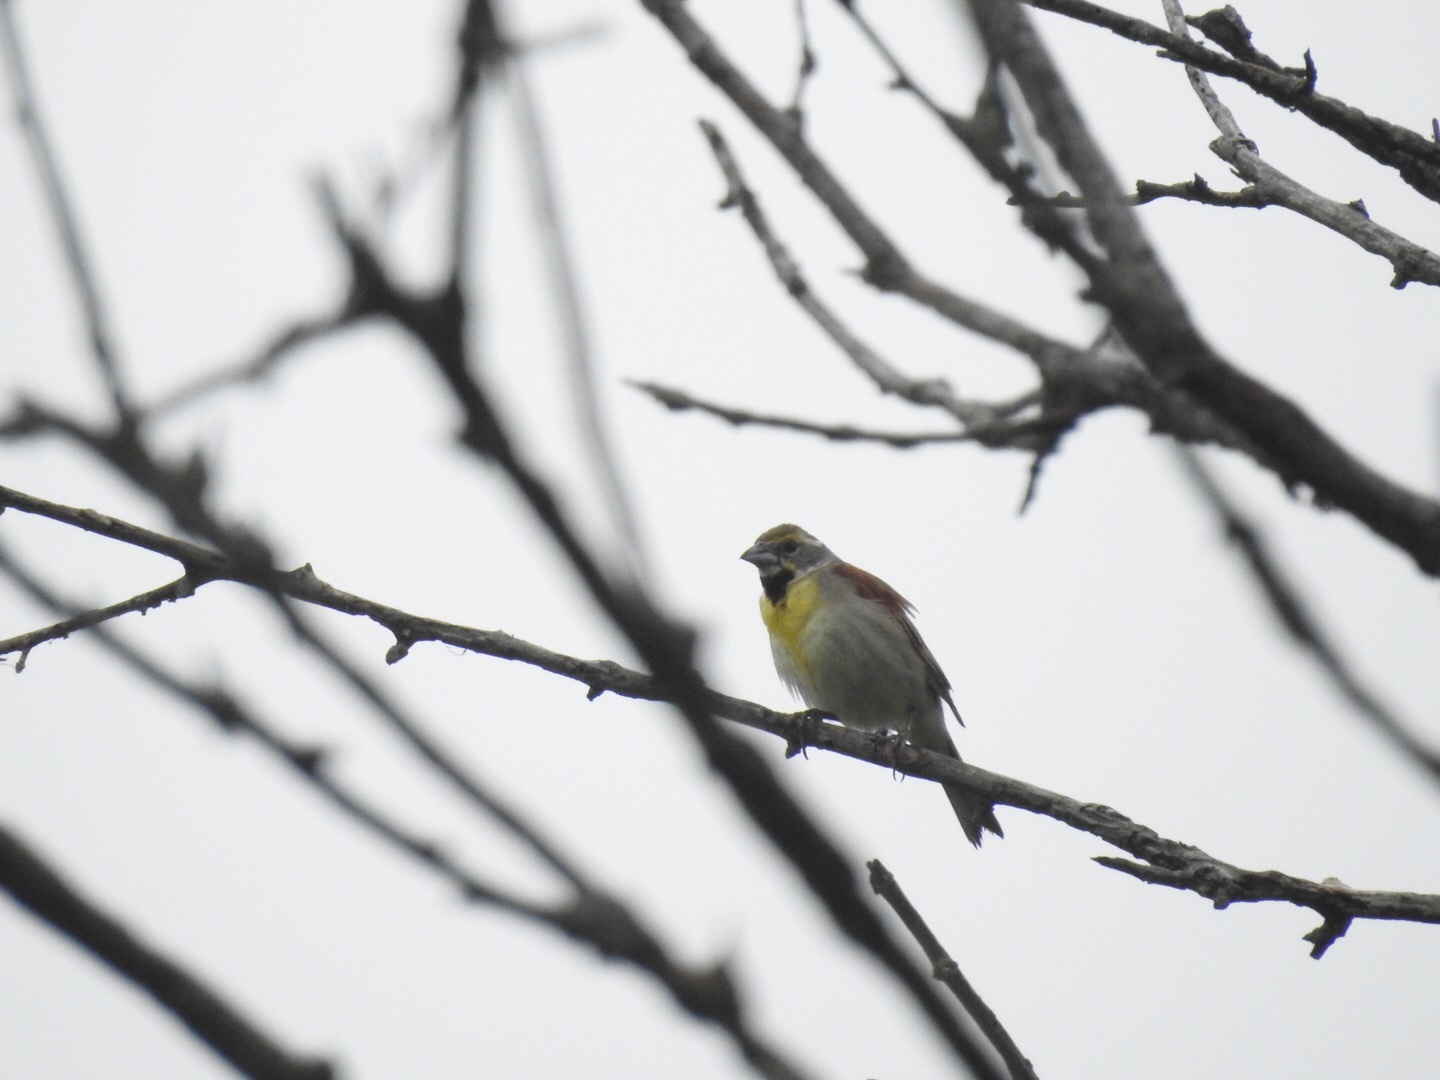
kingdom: Animalia
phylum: Chordata
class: Aves
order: Passeriformes
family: Cardinalidae
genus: Spiza
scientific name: Spiza americana
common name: Dickcissel
